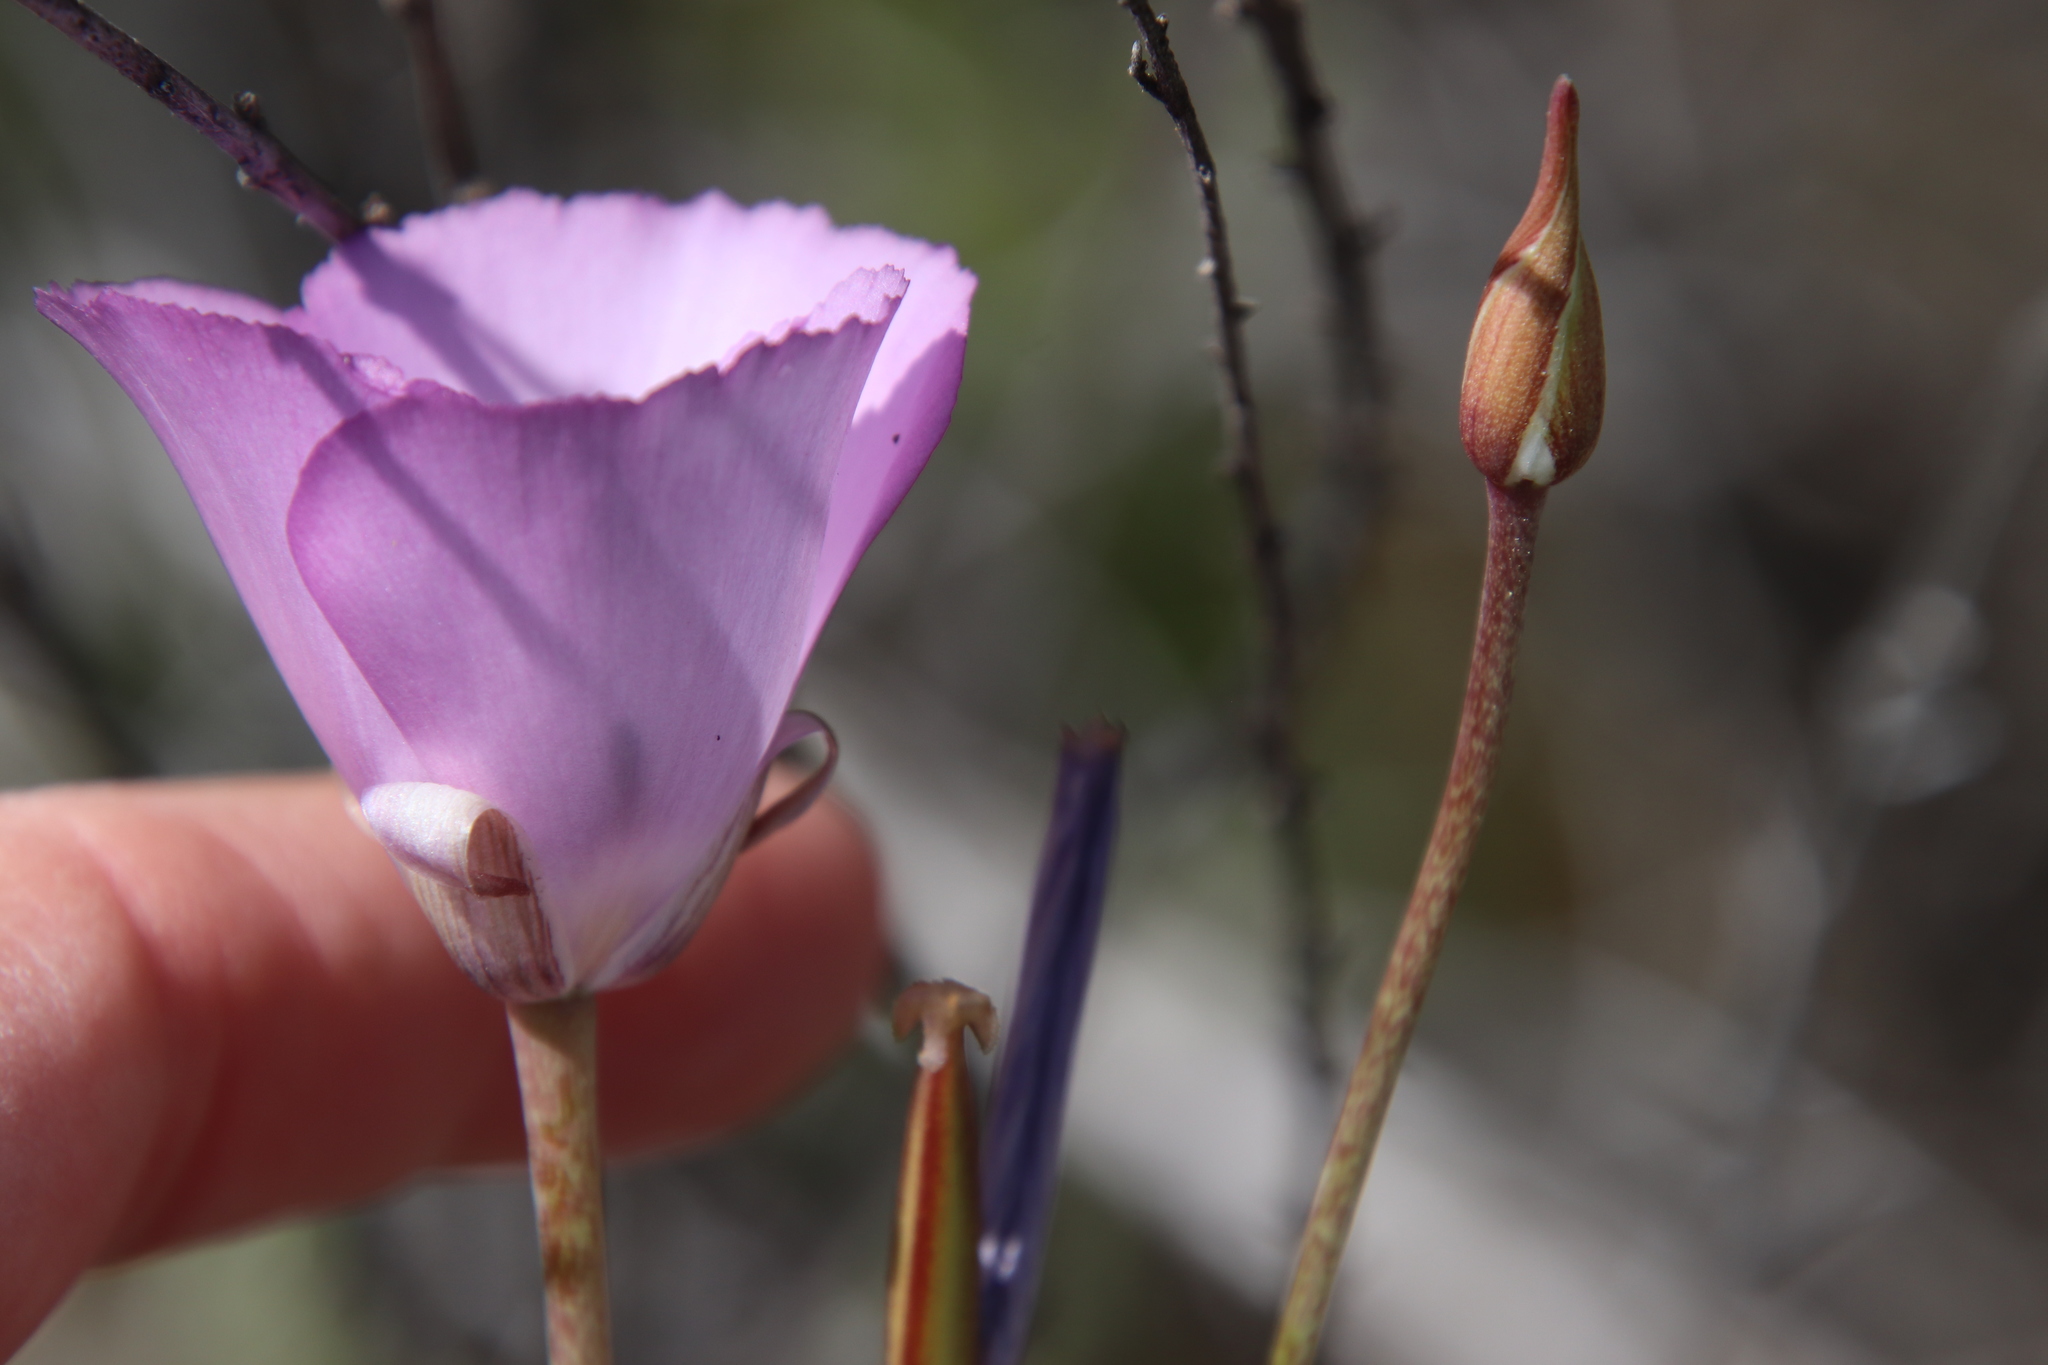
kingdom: Plantae
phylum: Tracheophyta
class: Liliopsida
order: Liliales
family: Liliaceae
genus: Calochortus
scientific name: Calochortus splendens
